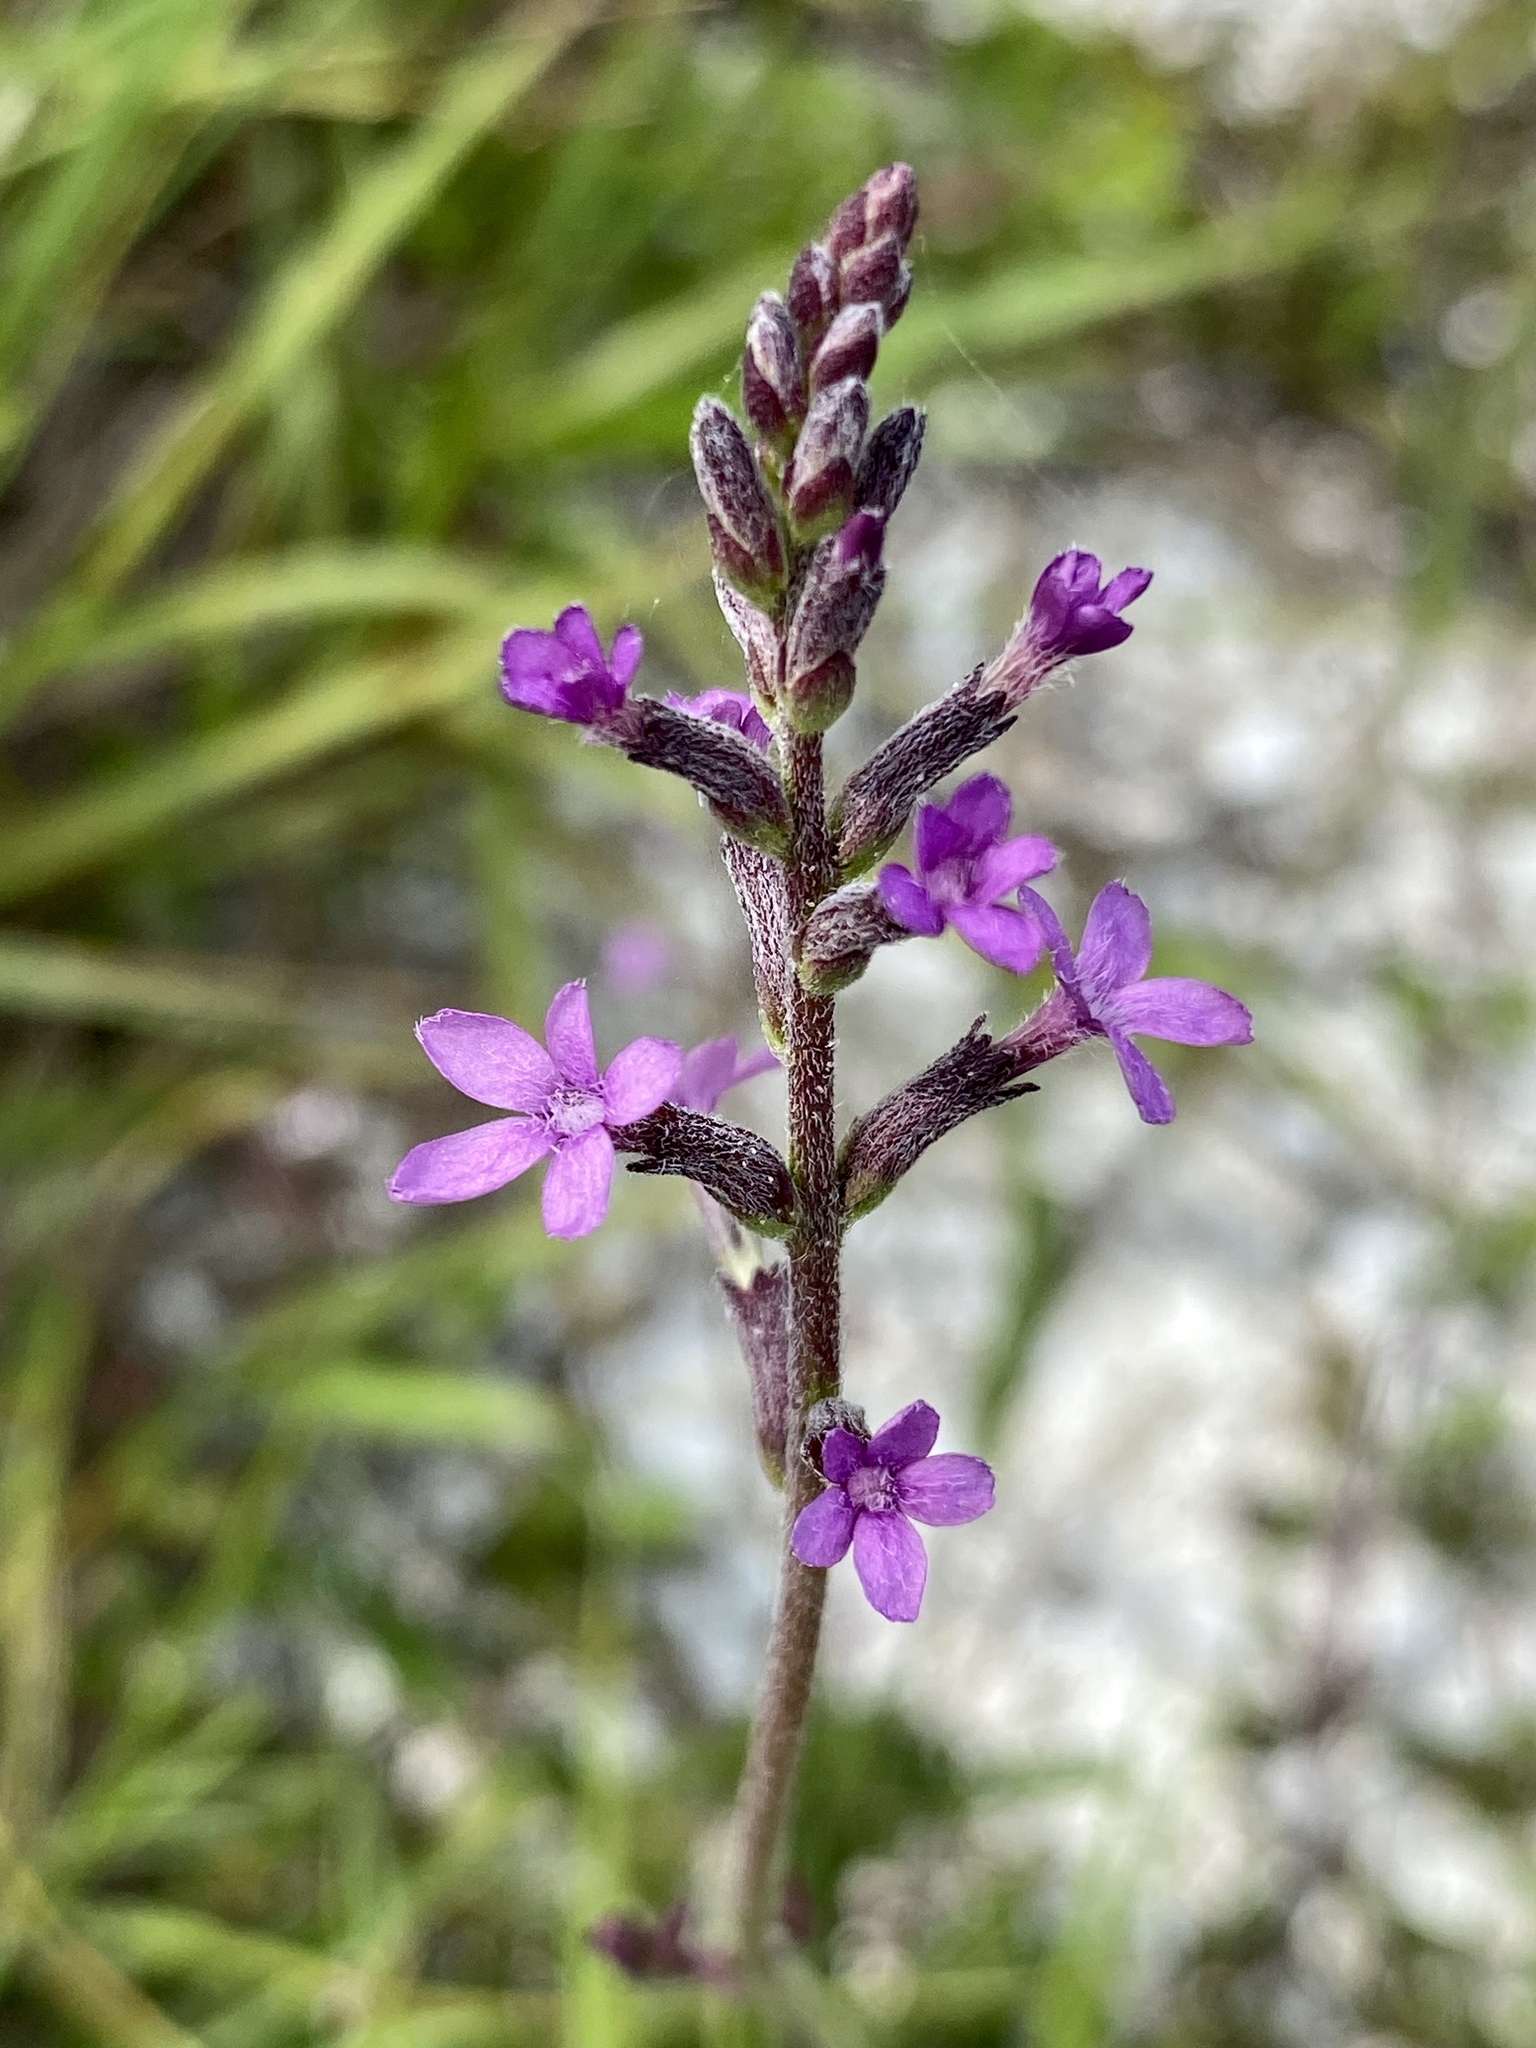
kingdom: Plantae
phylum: Tracheophyta
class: Magnoliopsida
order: Lamiales
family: Orobanchaceae
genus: Buchnera
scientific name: Buchnera floridana
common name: Florida bluehearts
